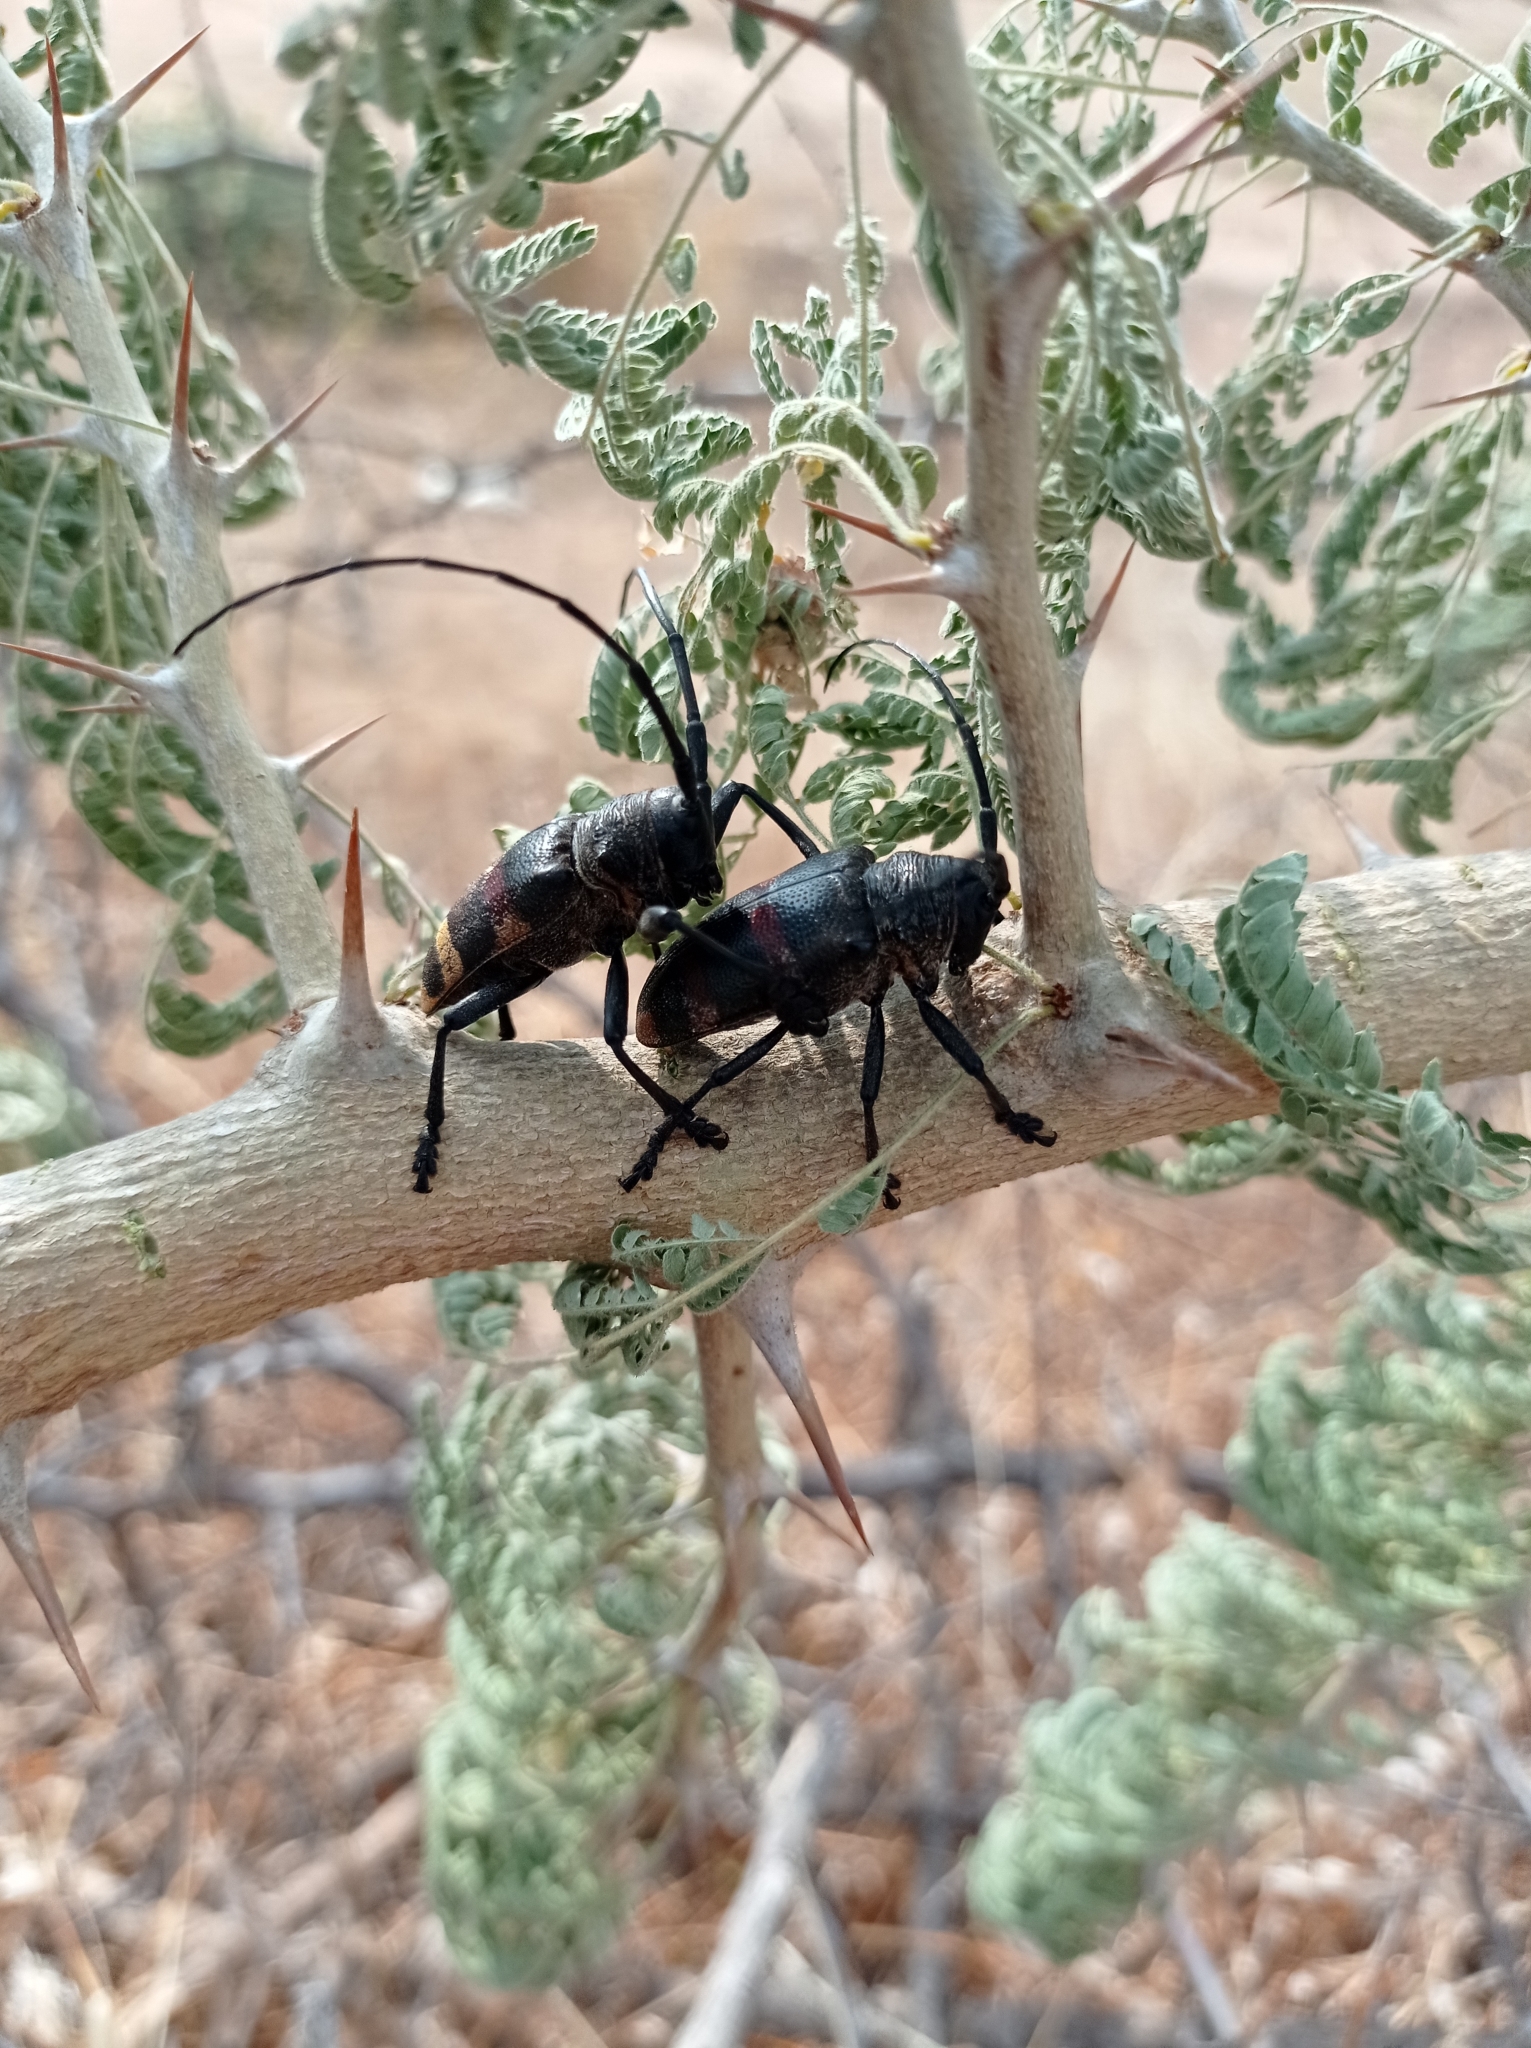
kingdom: Animalia
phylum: Arthropoda
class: Insecta
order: Coleoptera
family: Cerambycidae
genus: Pycnopsis
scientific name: Pycnopsis brachyptera
